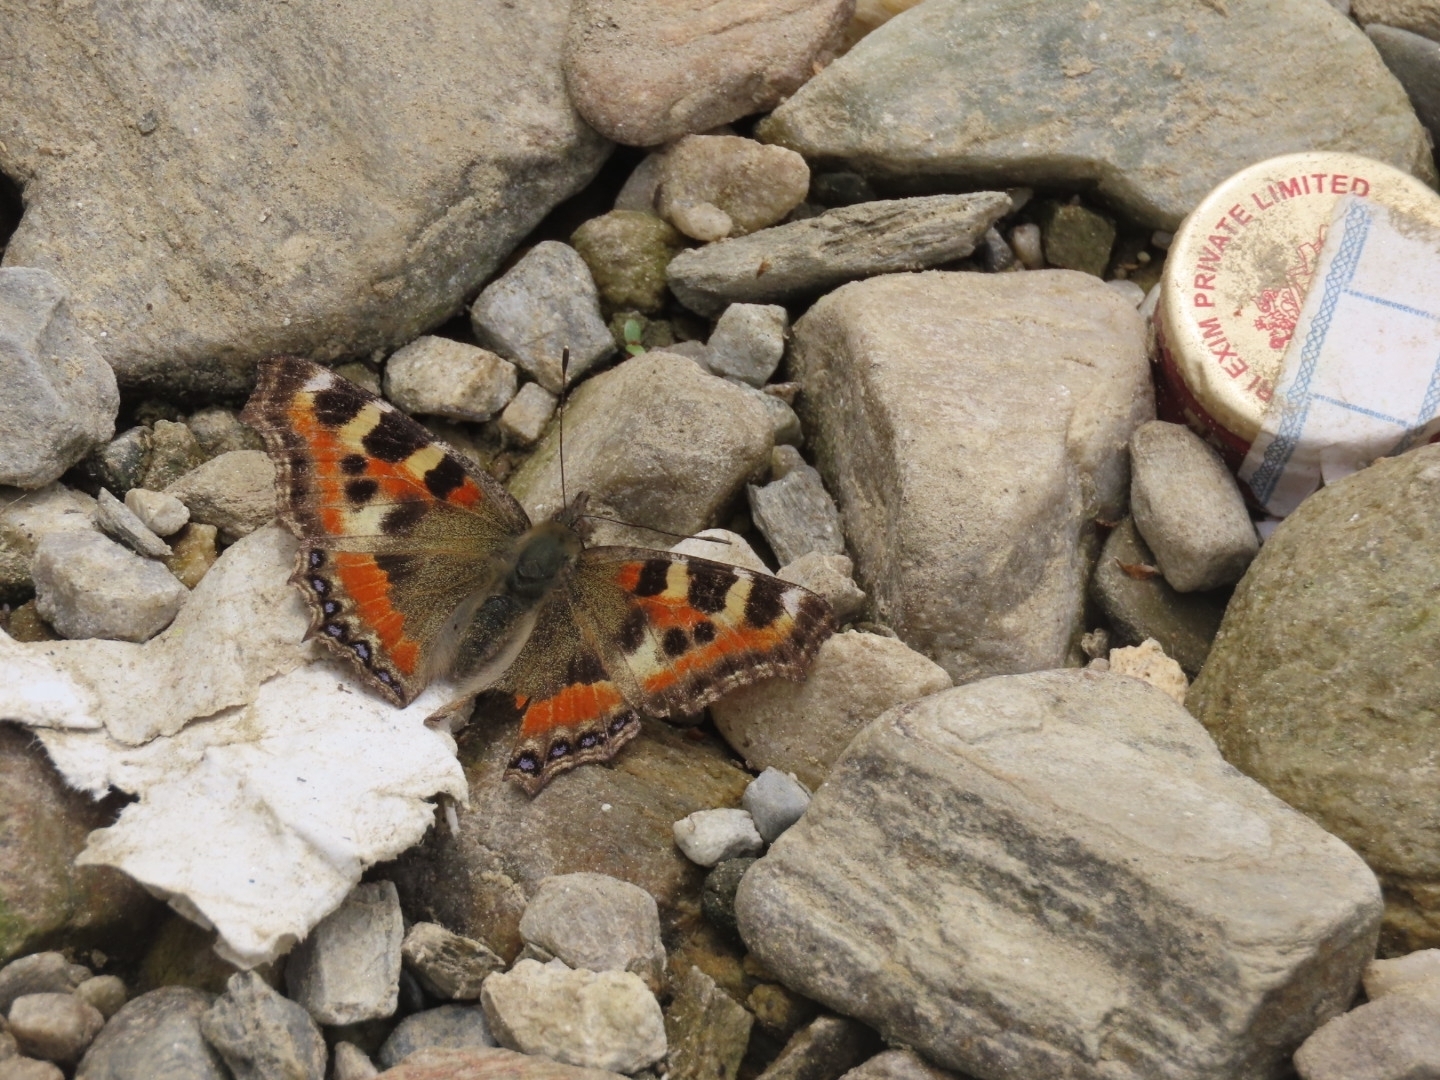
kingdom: Animalia
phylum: Arthropoda
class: Insecta
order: Lepidoptera
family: Nymphalidae
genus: Aglais
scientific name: Aglais caschmirensis
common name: Indian tortoiseshell
